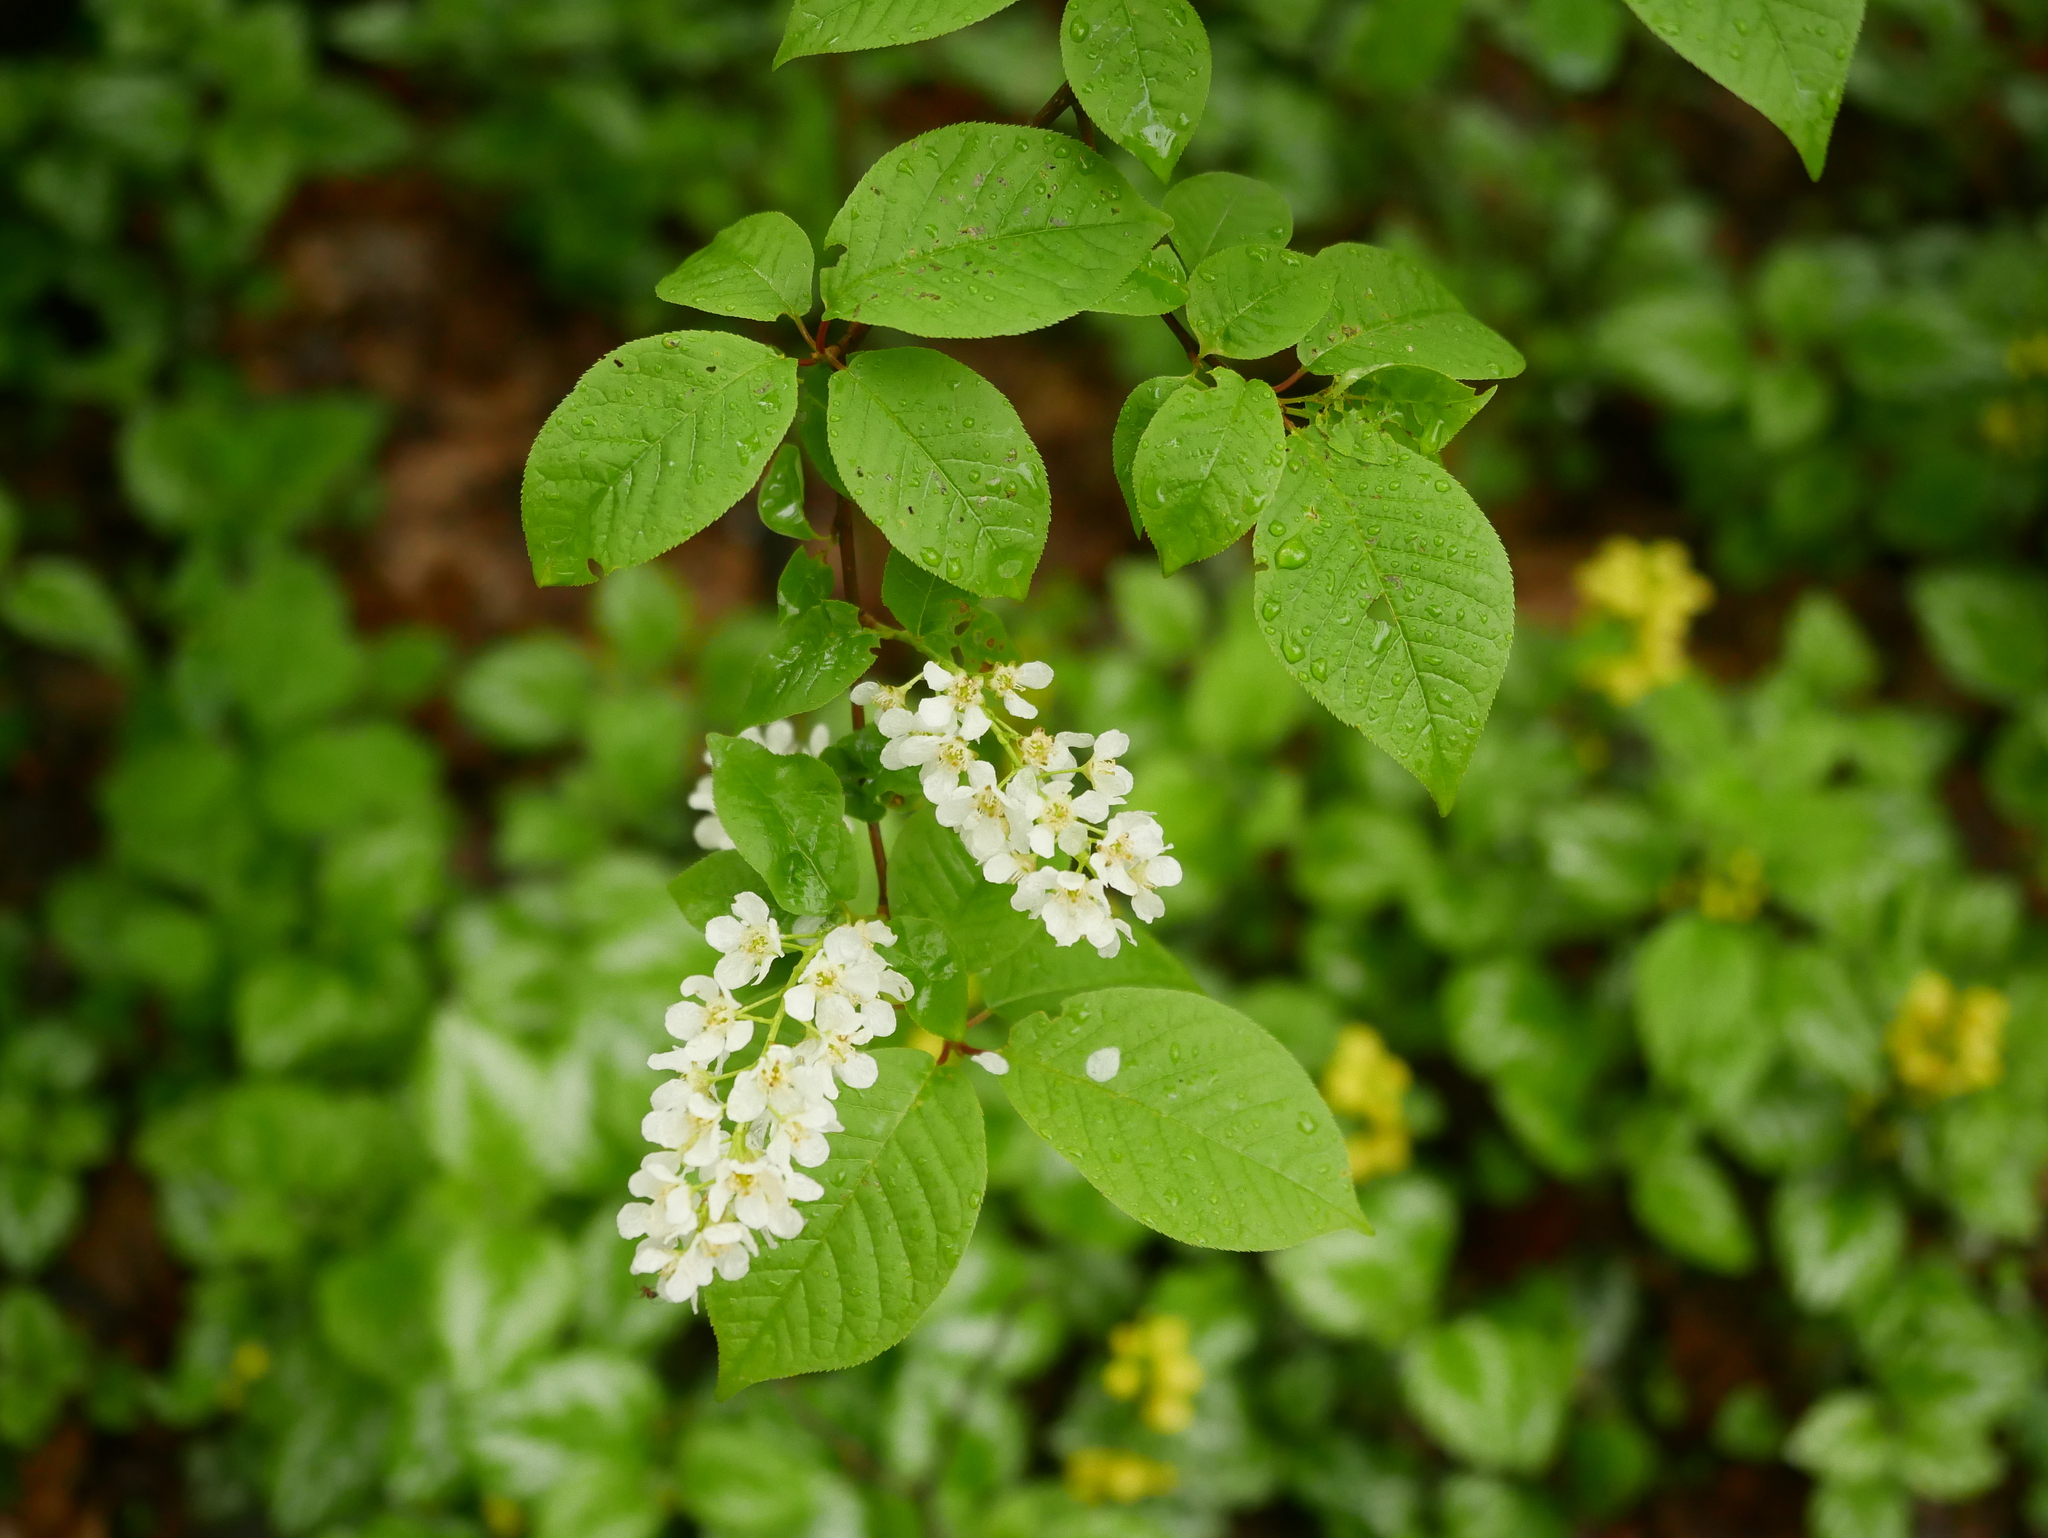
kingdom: Plantae
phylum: Tracheophyta
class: Magnoliopsida
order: Rosales
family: Rosaceae
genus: Prunus
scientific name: Prunus padus
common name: Bird cherry
